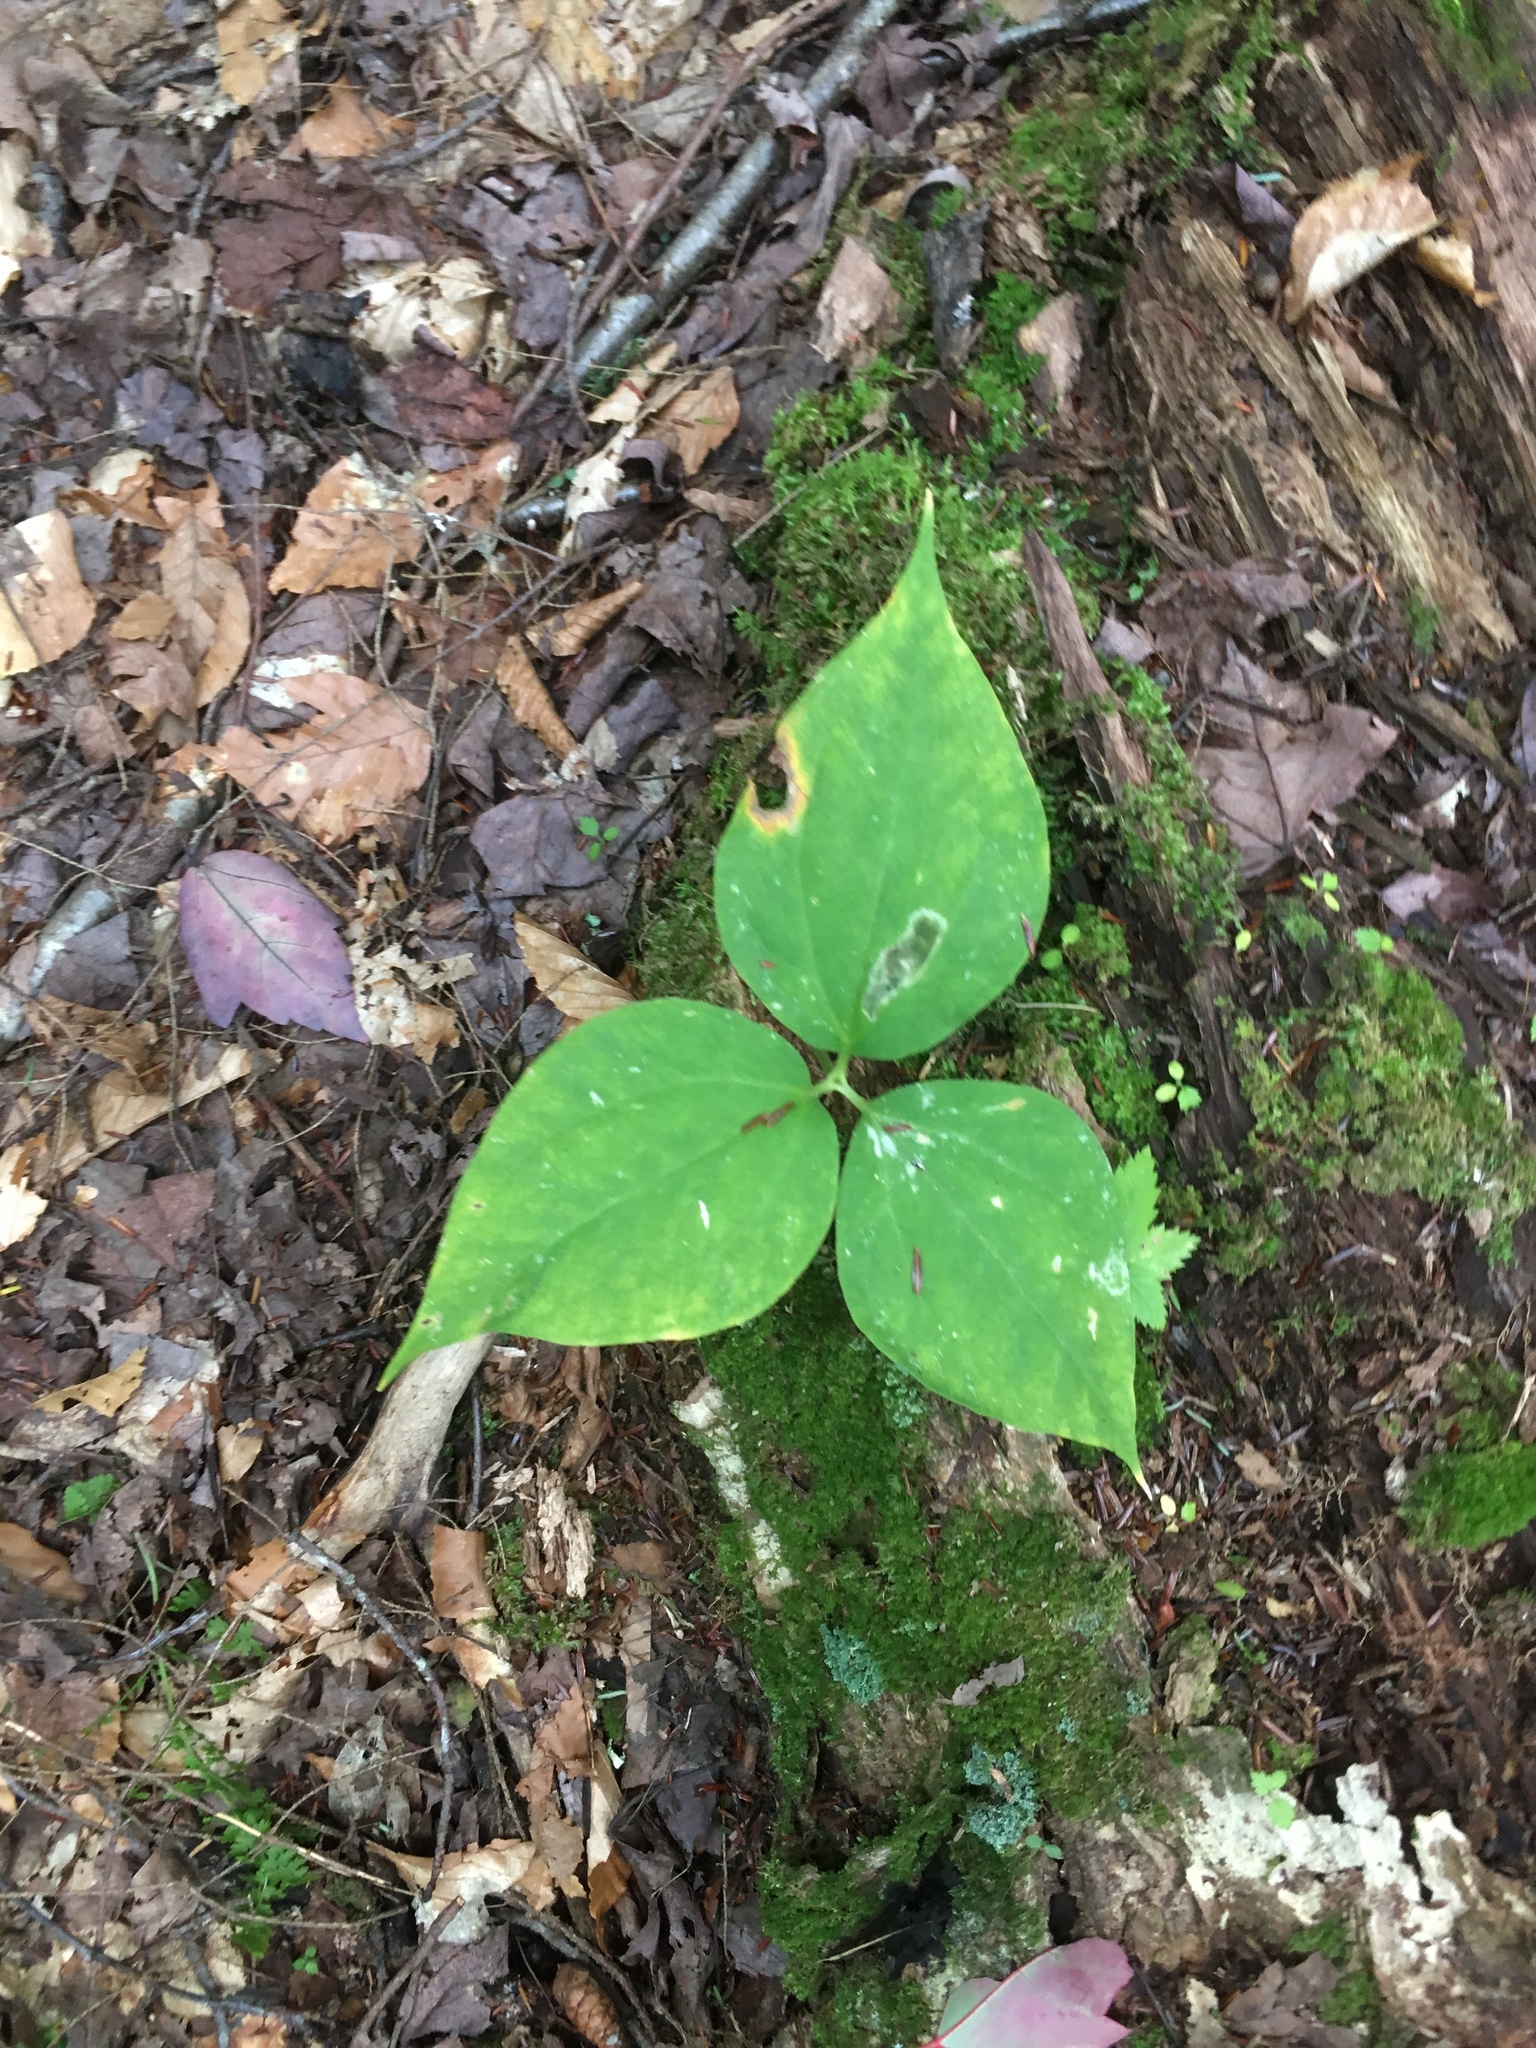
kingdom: Plantae
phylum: Tracheophyta
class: Liliopsida
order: Liliales
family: Melanthiaceae
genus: Trillium
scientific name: Trillium undulatum
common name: Paint trillium
